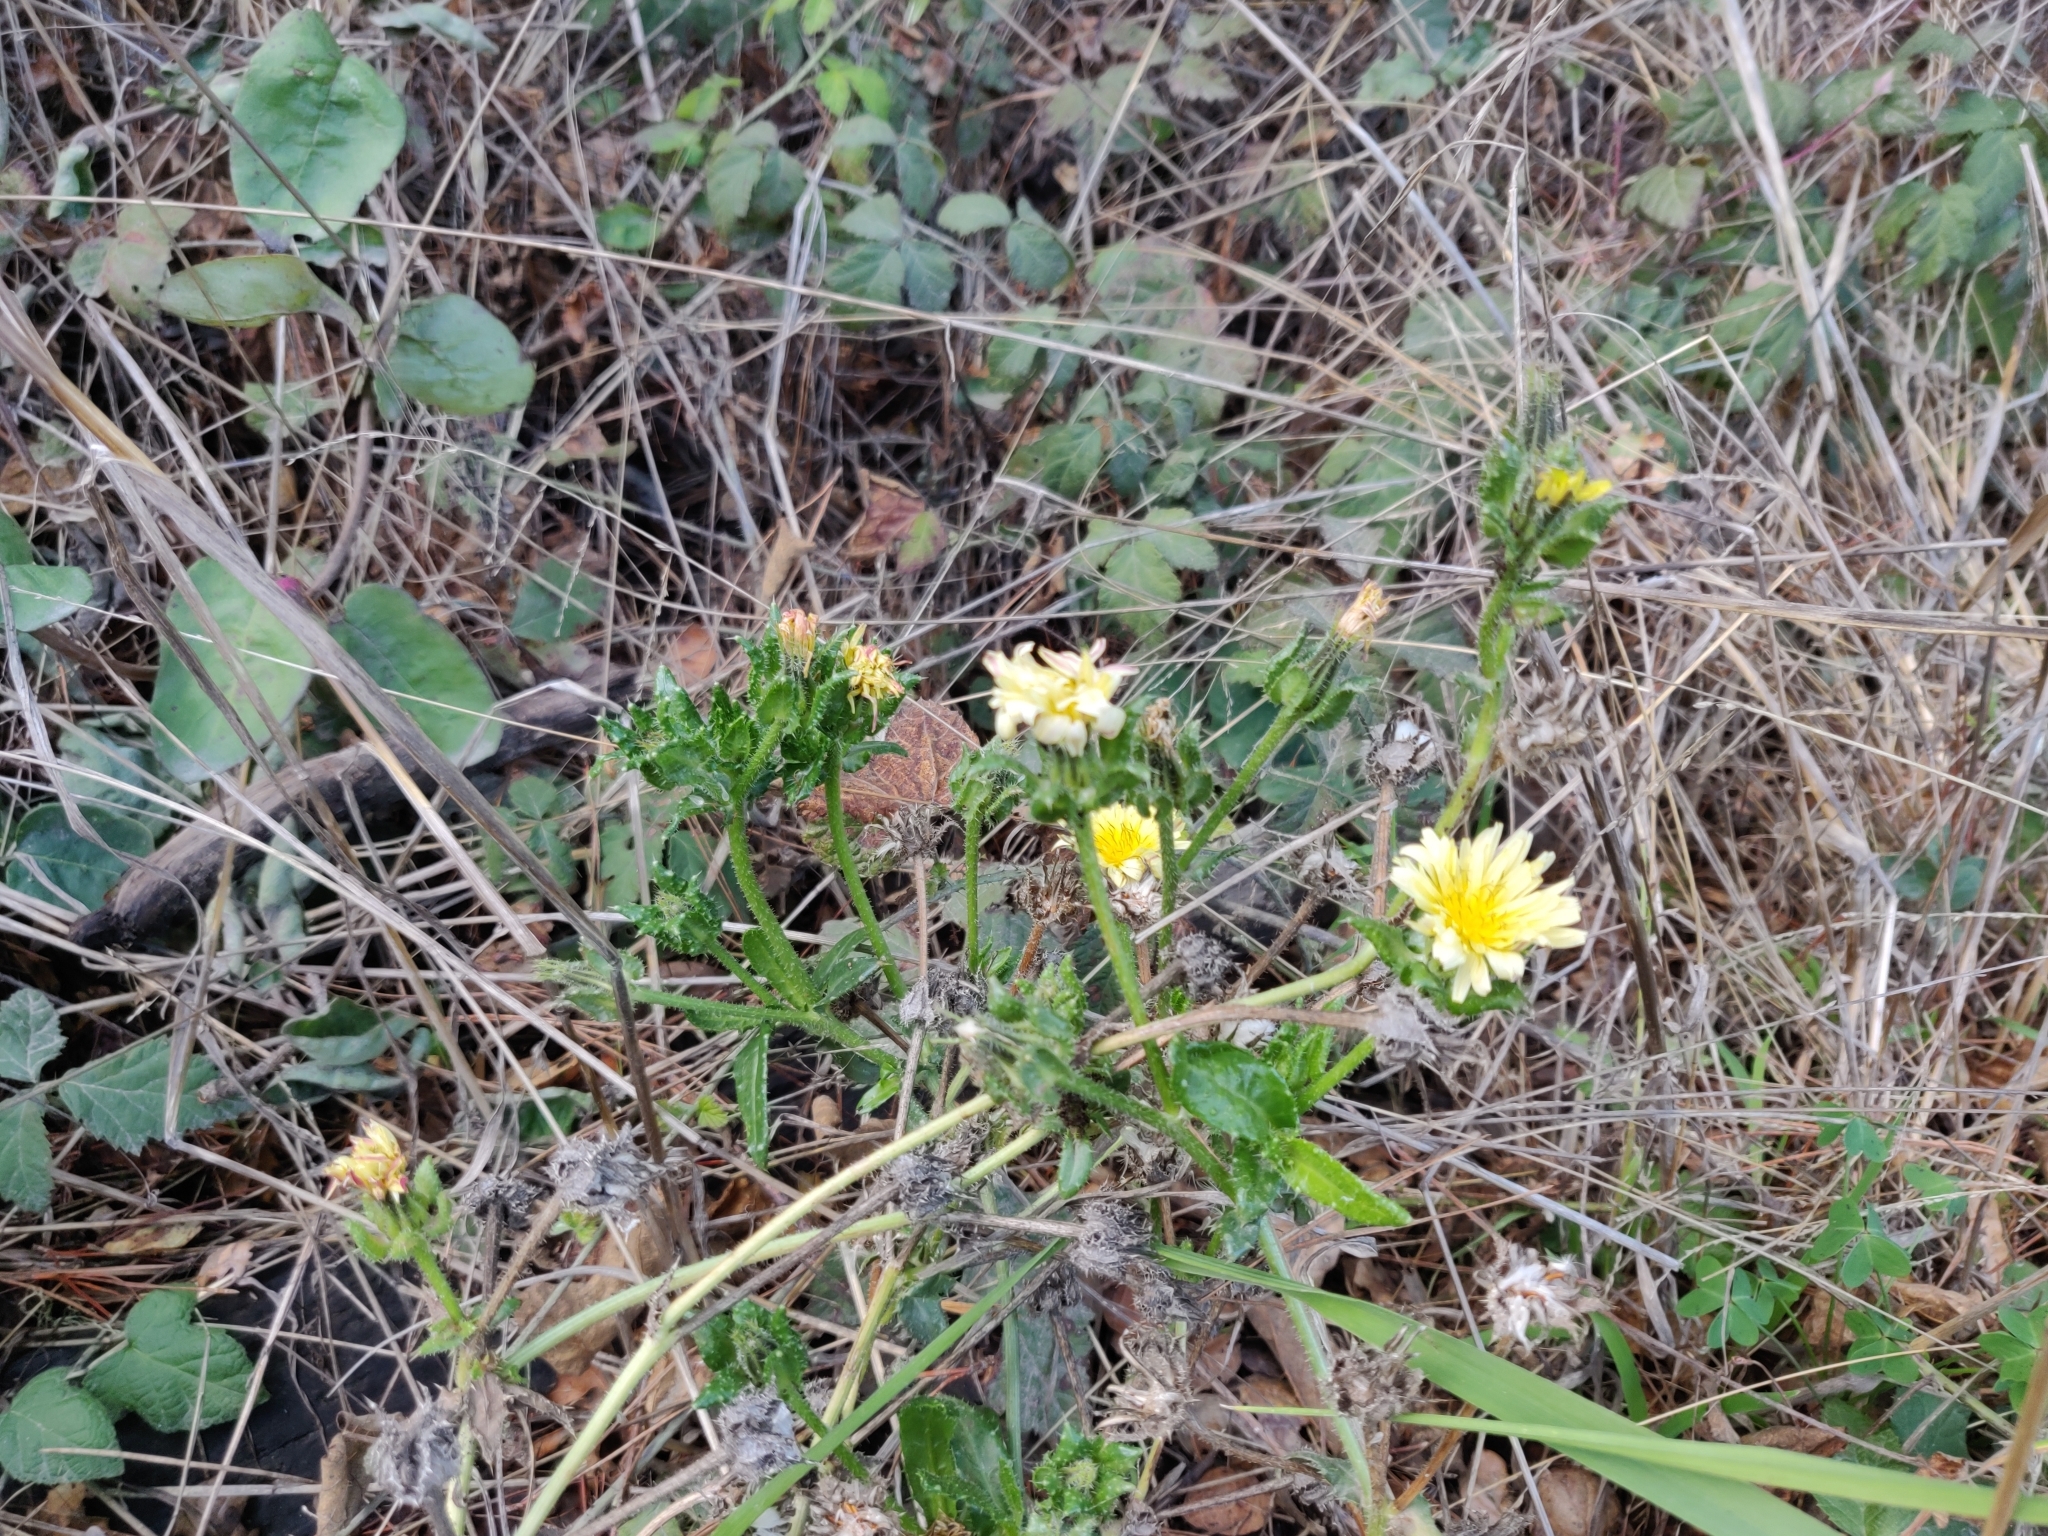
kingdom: Plantae
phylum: Tracheophyta
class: Magnoliopsida
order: Asterales
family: Asteraceae
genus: Helminthotheca
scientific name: Helminthotheca echioides
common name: Ox-tongue
